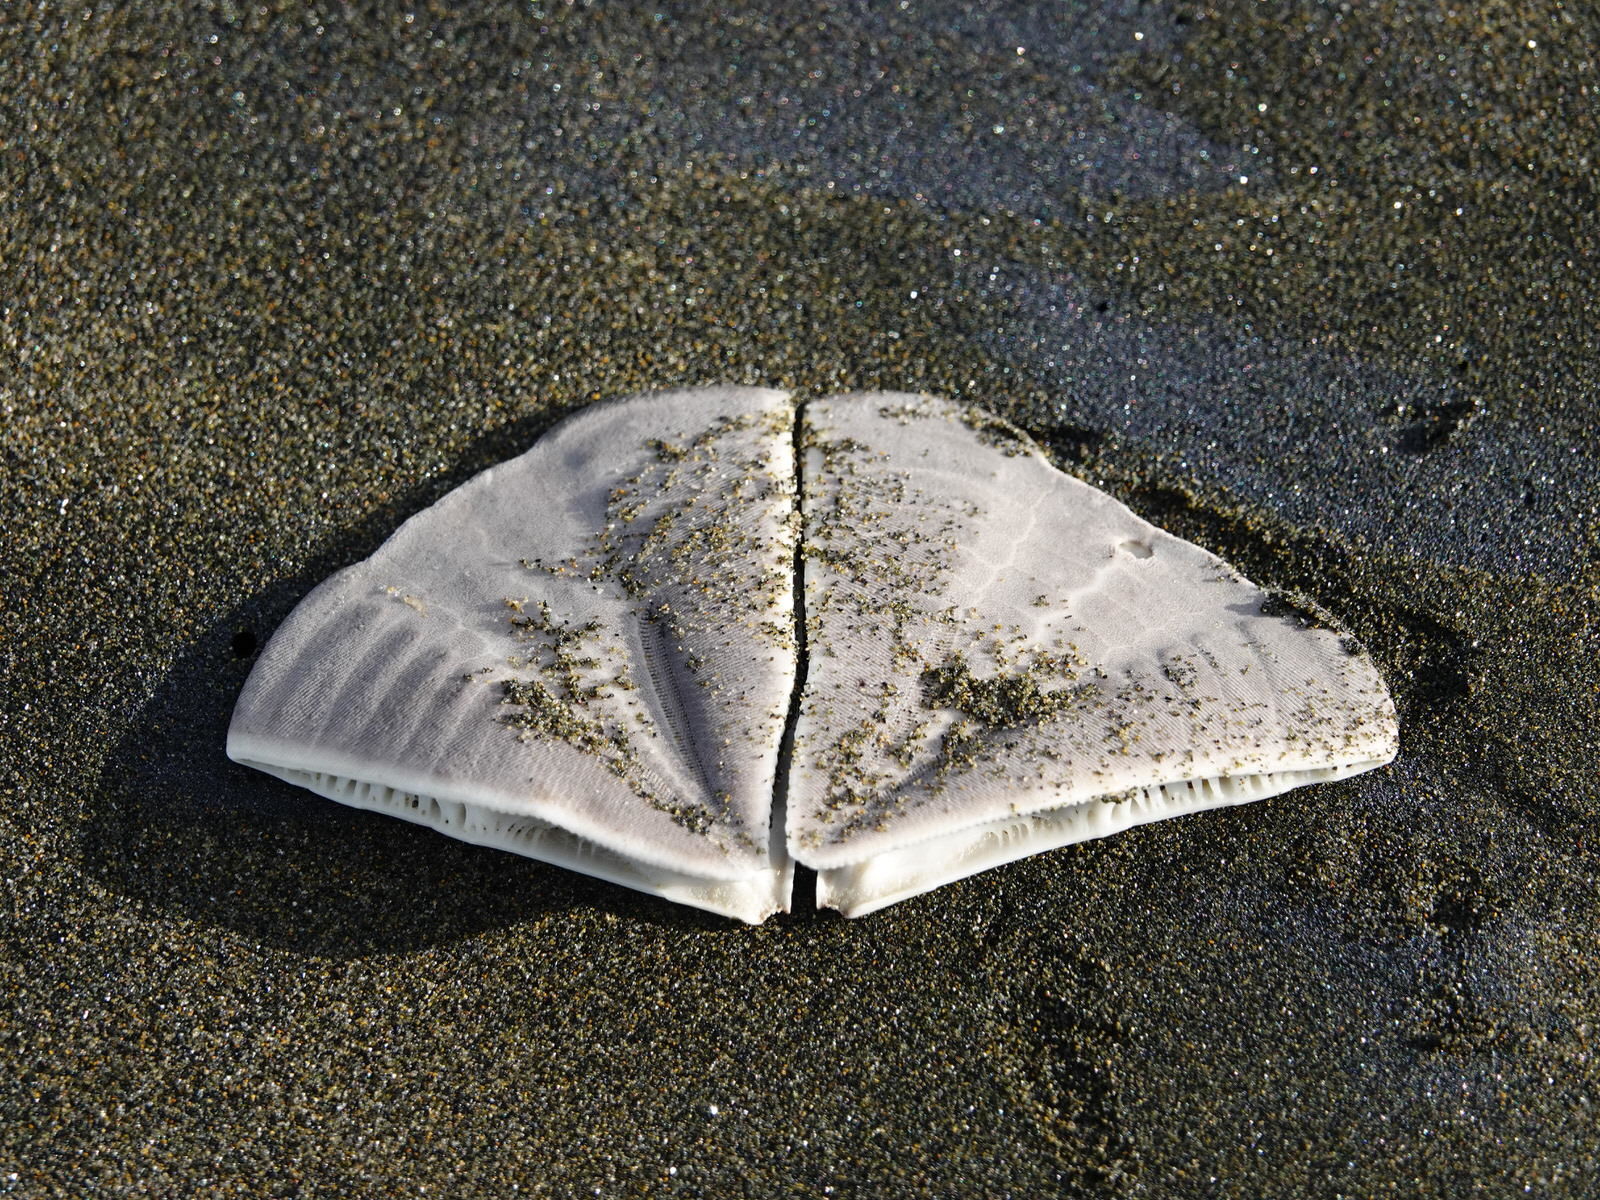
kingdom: Animalia
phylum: Echinodermata
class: Echinoidea
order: Clypeasteroida
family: Clypeasteridae
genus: Fellaster
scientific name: Fellaster zelandiae
